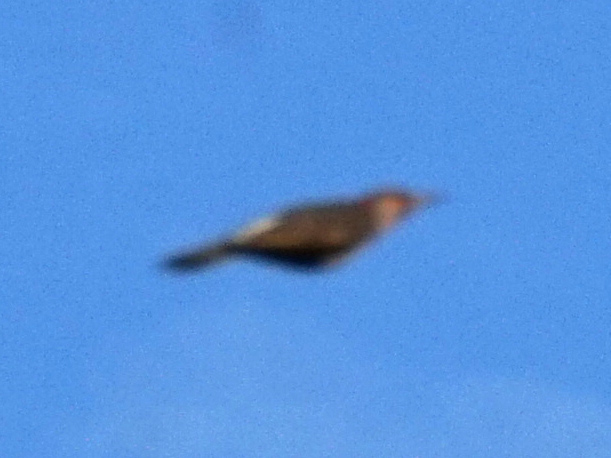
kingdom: Animalia
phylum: Chordata
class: Aves
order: Piciformes
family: Picidae
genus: Colaptes
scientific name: Colaptes auratus
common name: Northern flicker
